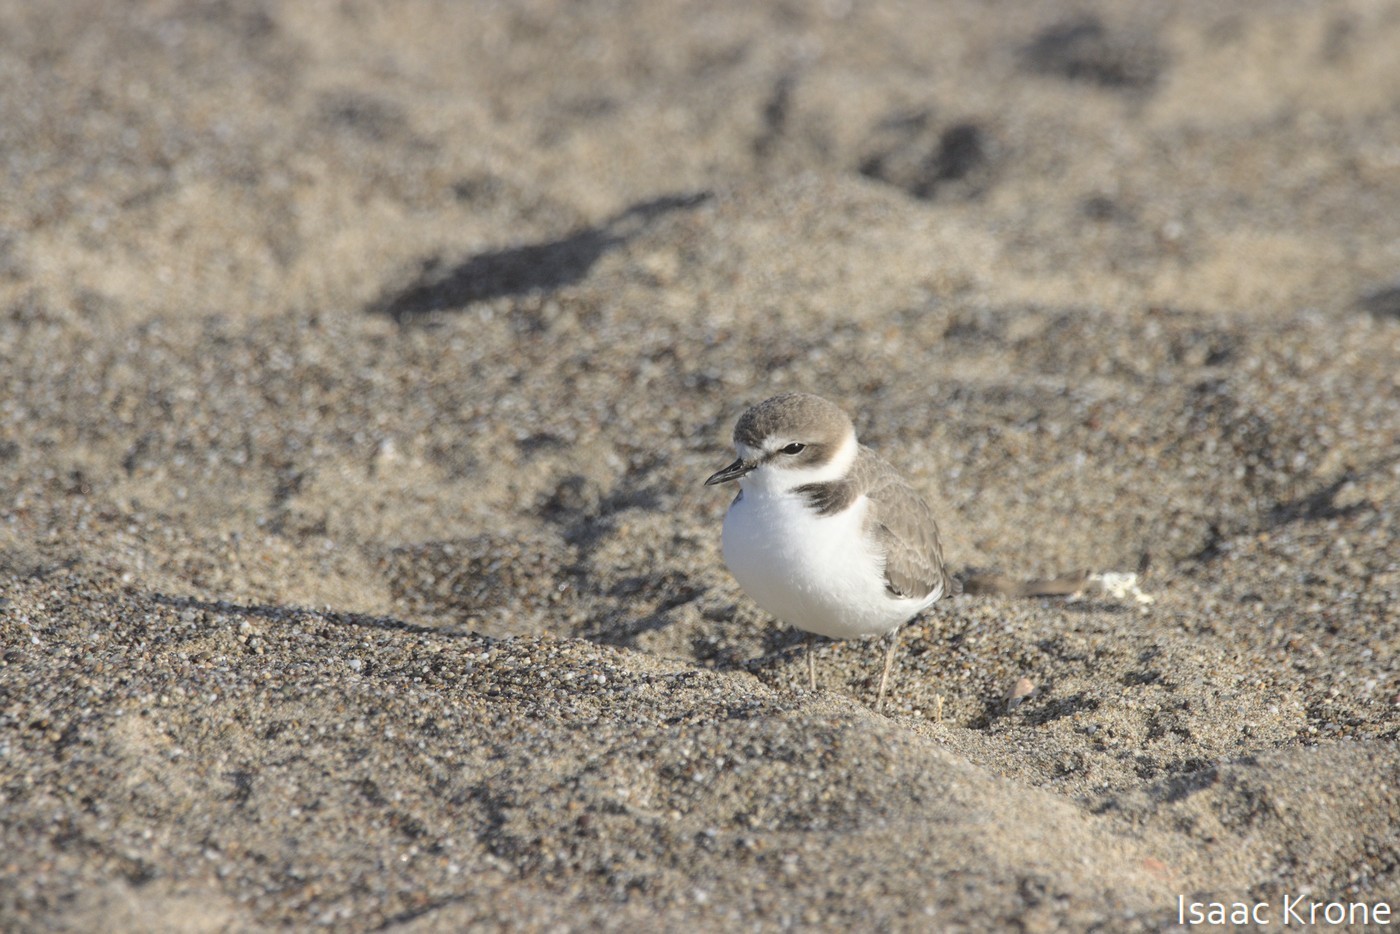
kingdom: Animalia
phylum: Chordata
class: Aves
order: Charadriiformes
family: Charadriidae
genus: Anarhynchus
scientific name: Anarhynchus
